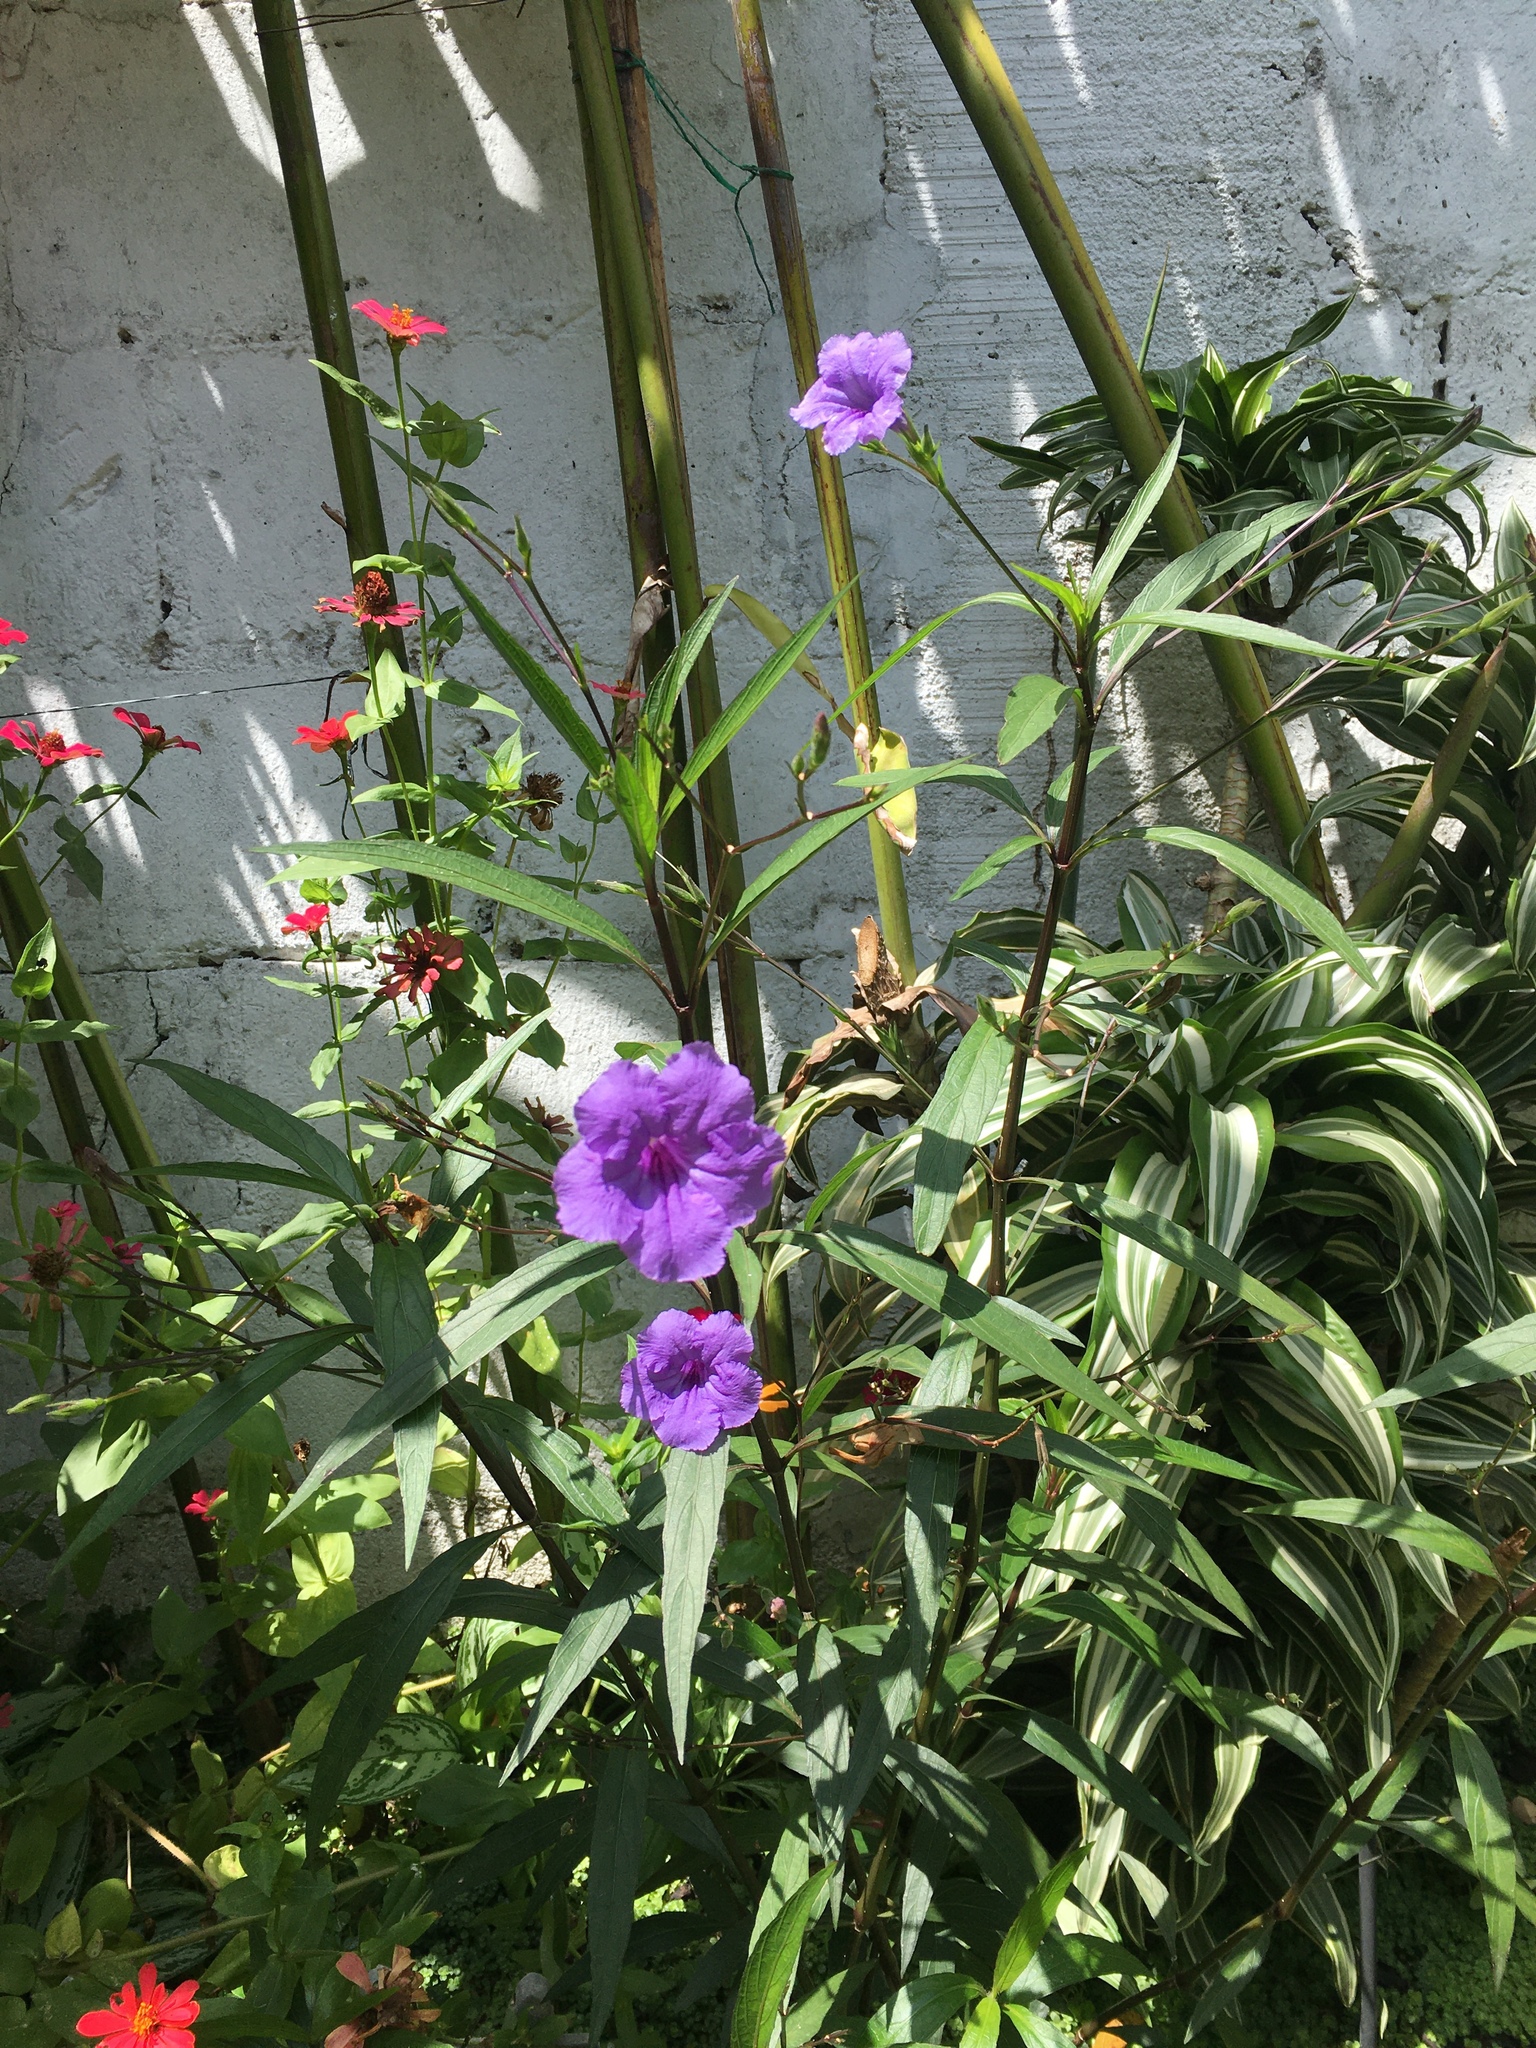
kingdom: Plantae
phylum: Tracheophyta
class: Magnoliopsida
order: Lamiales
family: Acanthaceae
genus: Ruellia
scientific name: Ruellia simplex
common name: Softseed wild petunia
